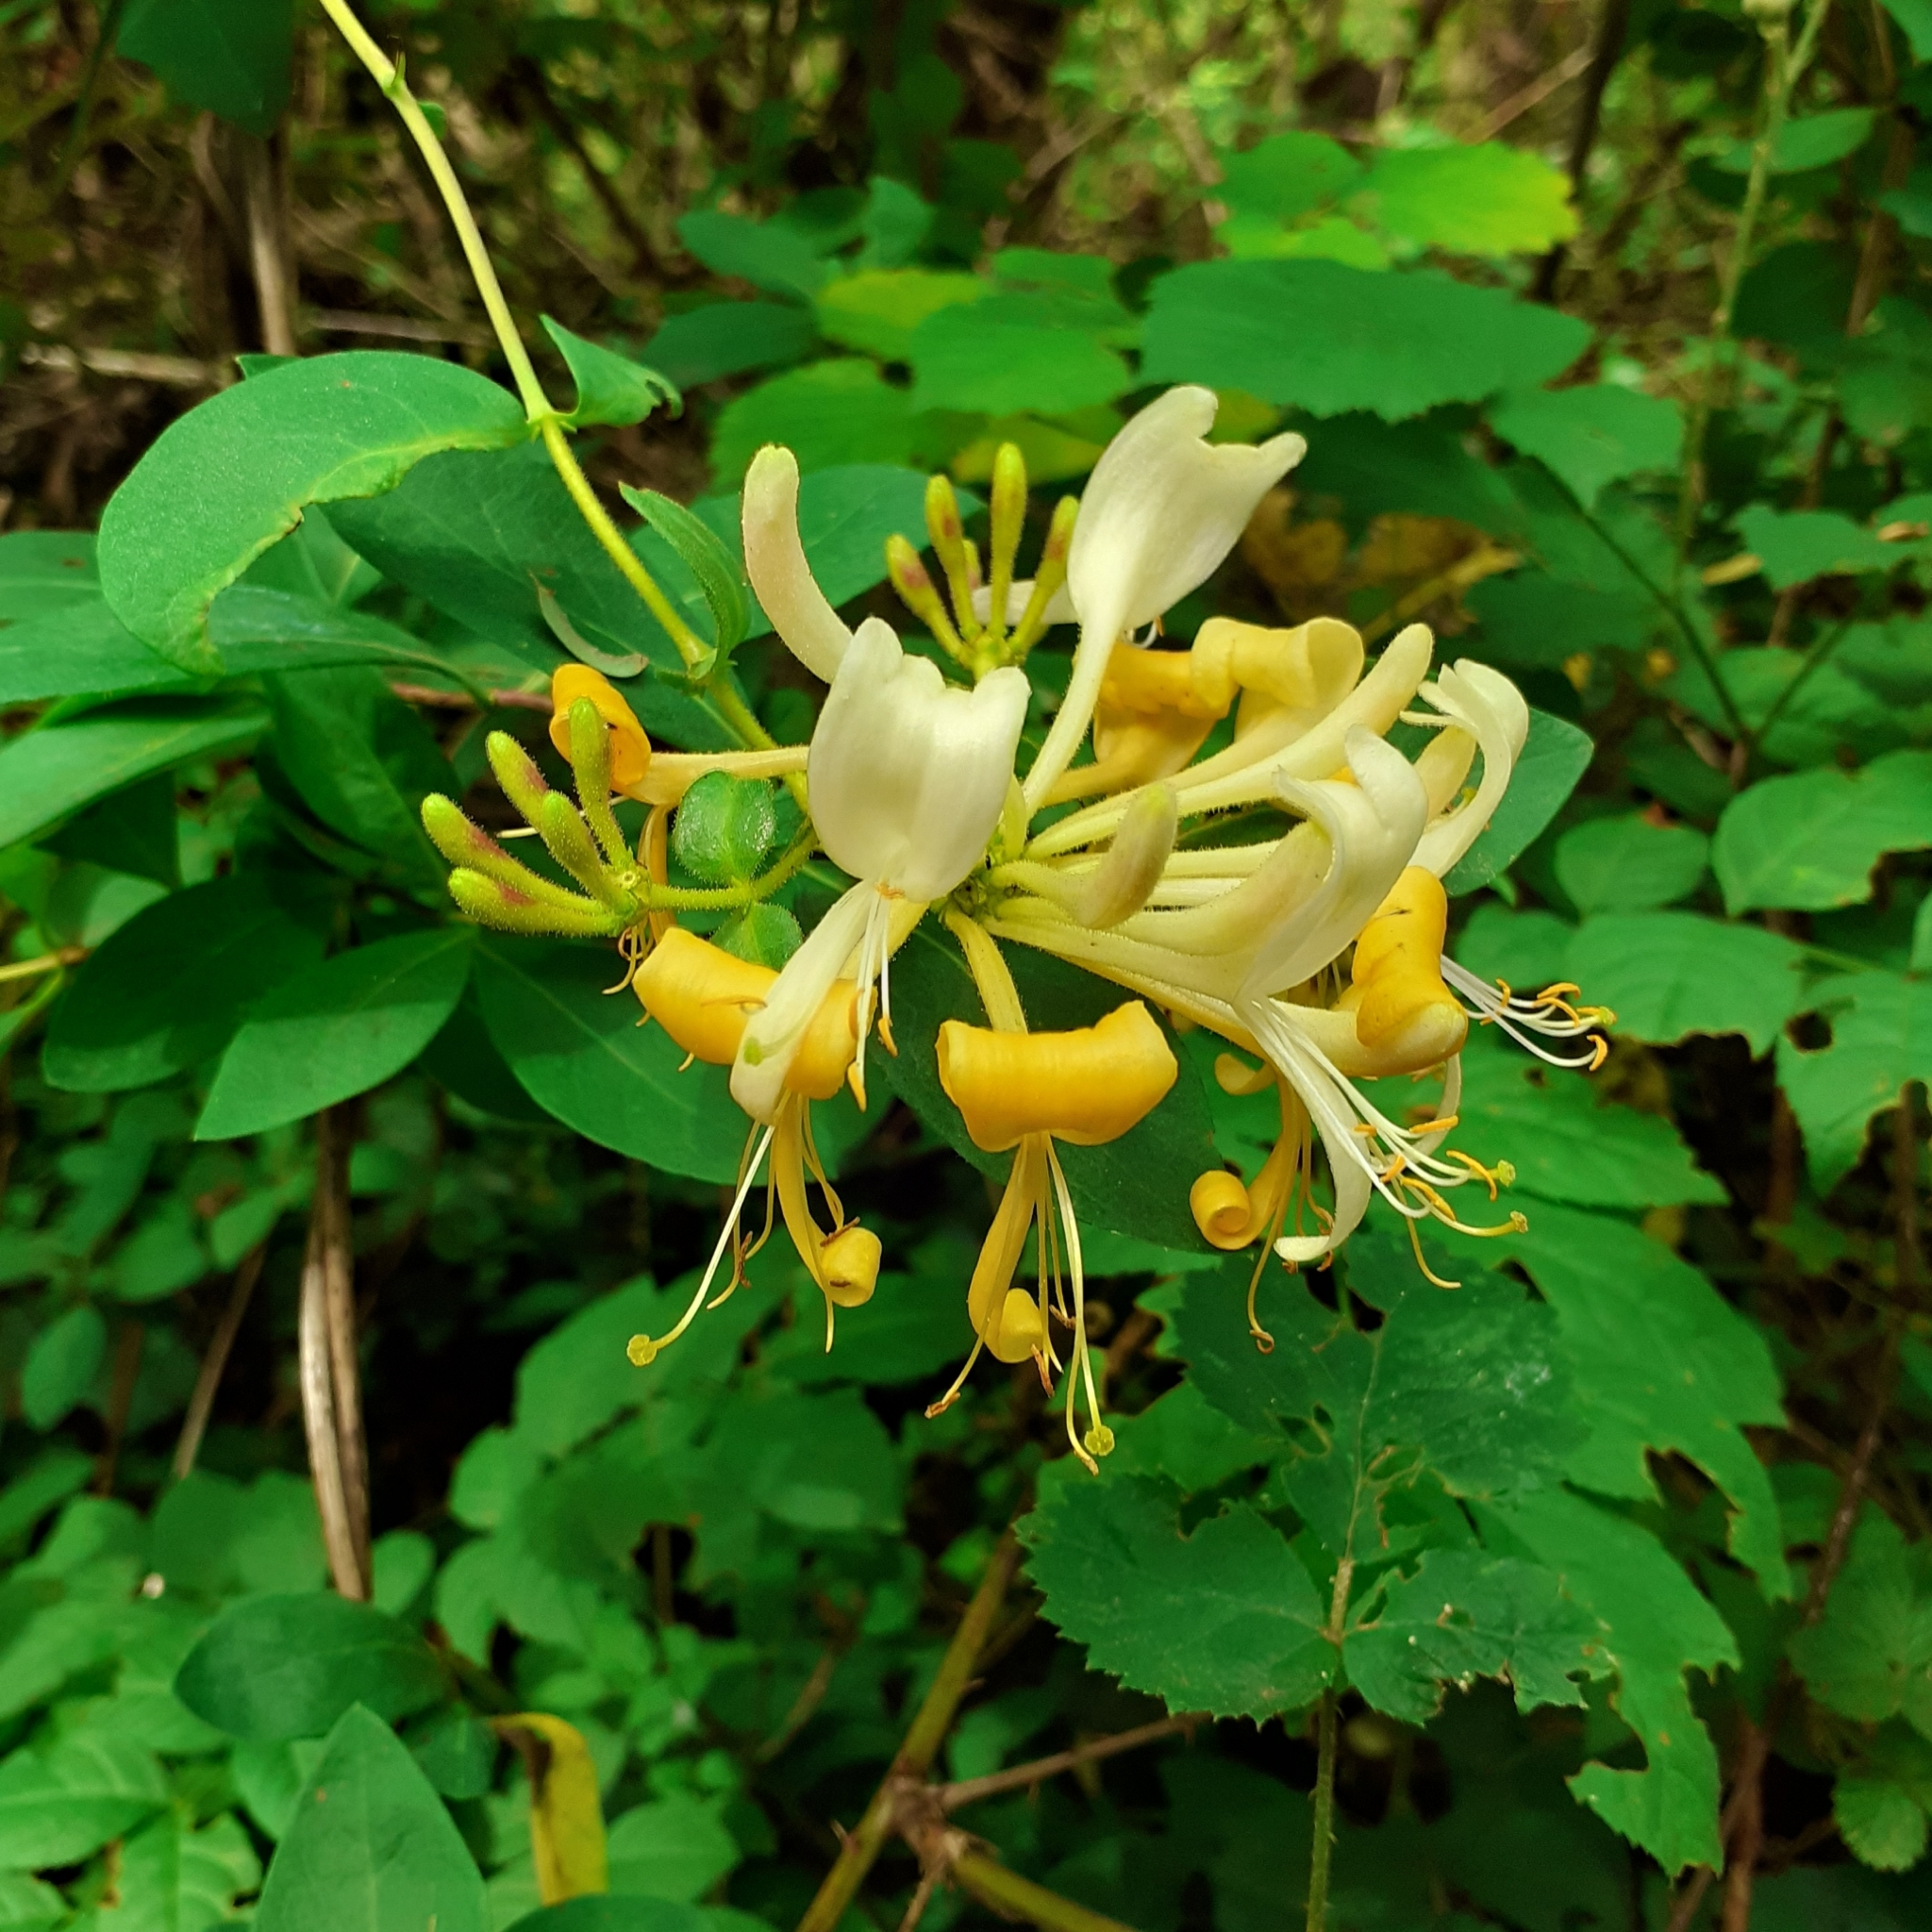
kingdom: Plantae
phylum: Tracheophyta
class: Magnoliopsida
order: Dipsacales
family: Caprifoliaceae
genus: Lonicera
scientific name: Lonicera periclymenum
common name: European honeysuckle
